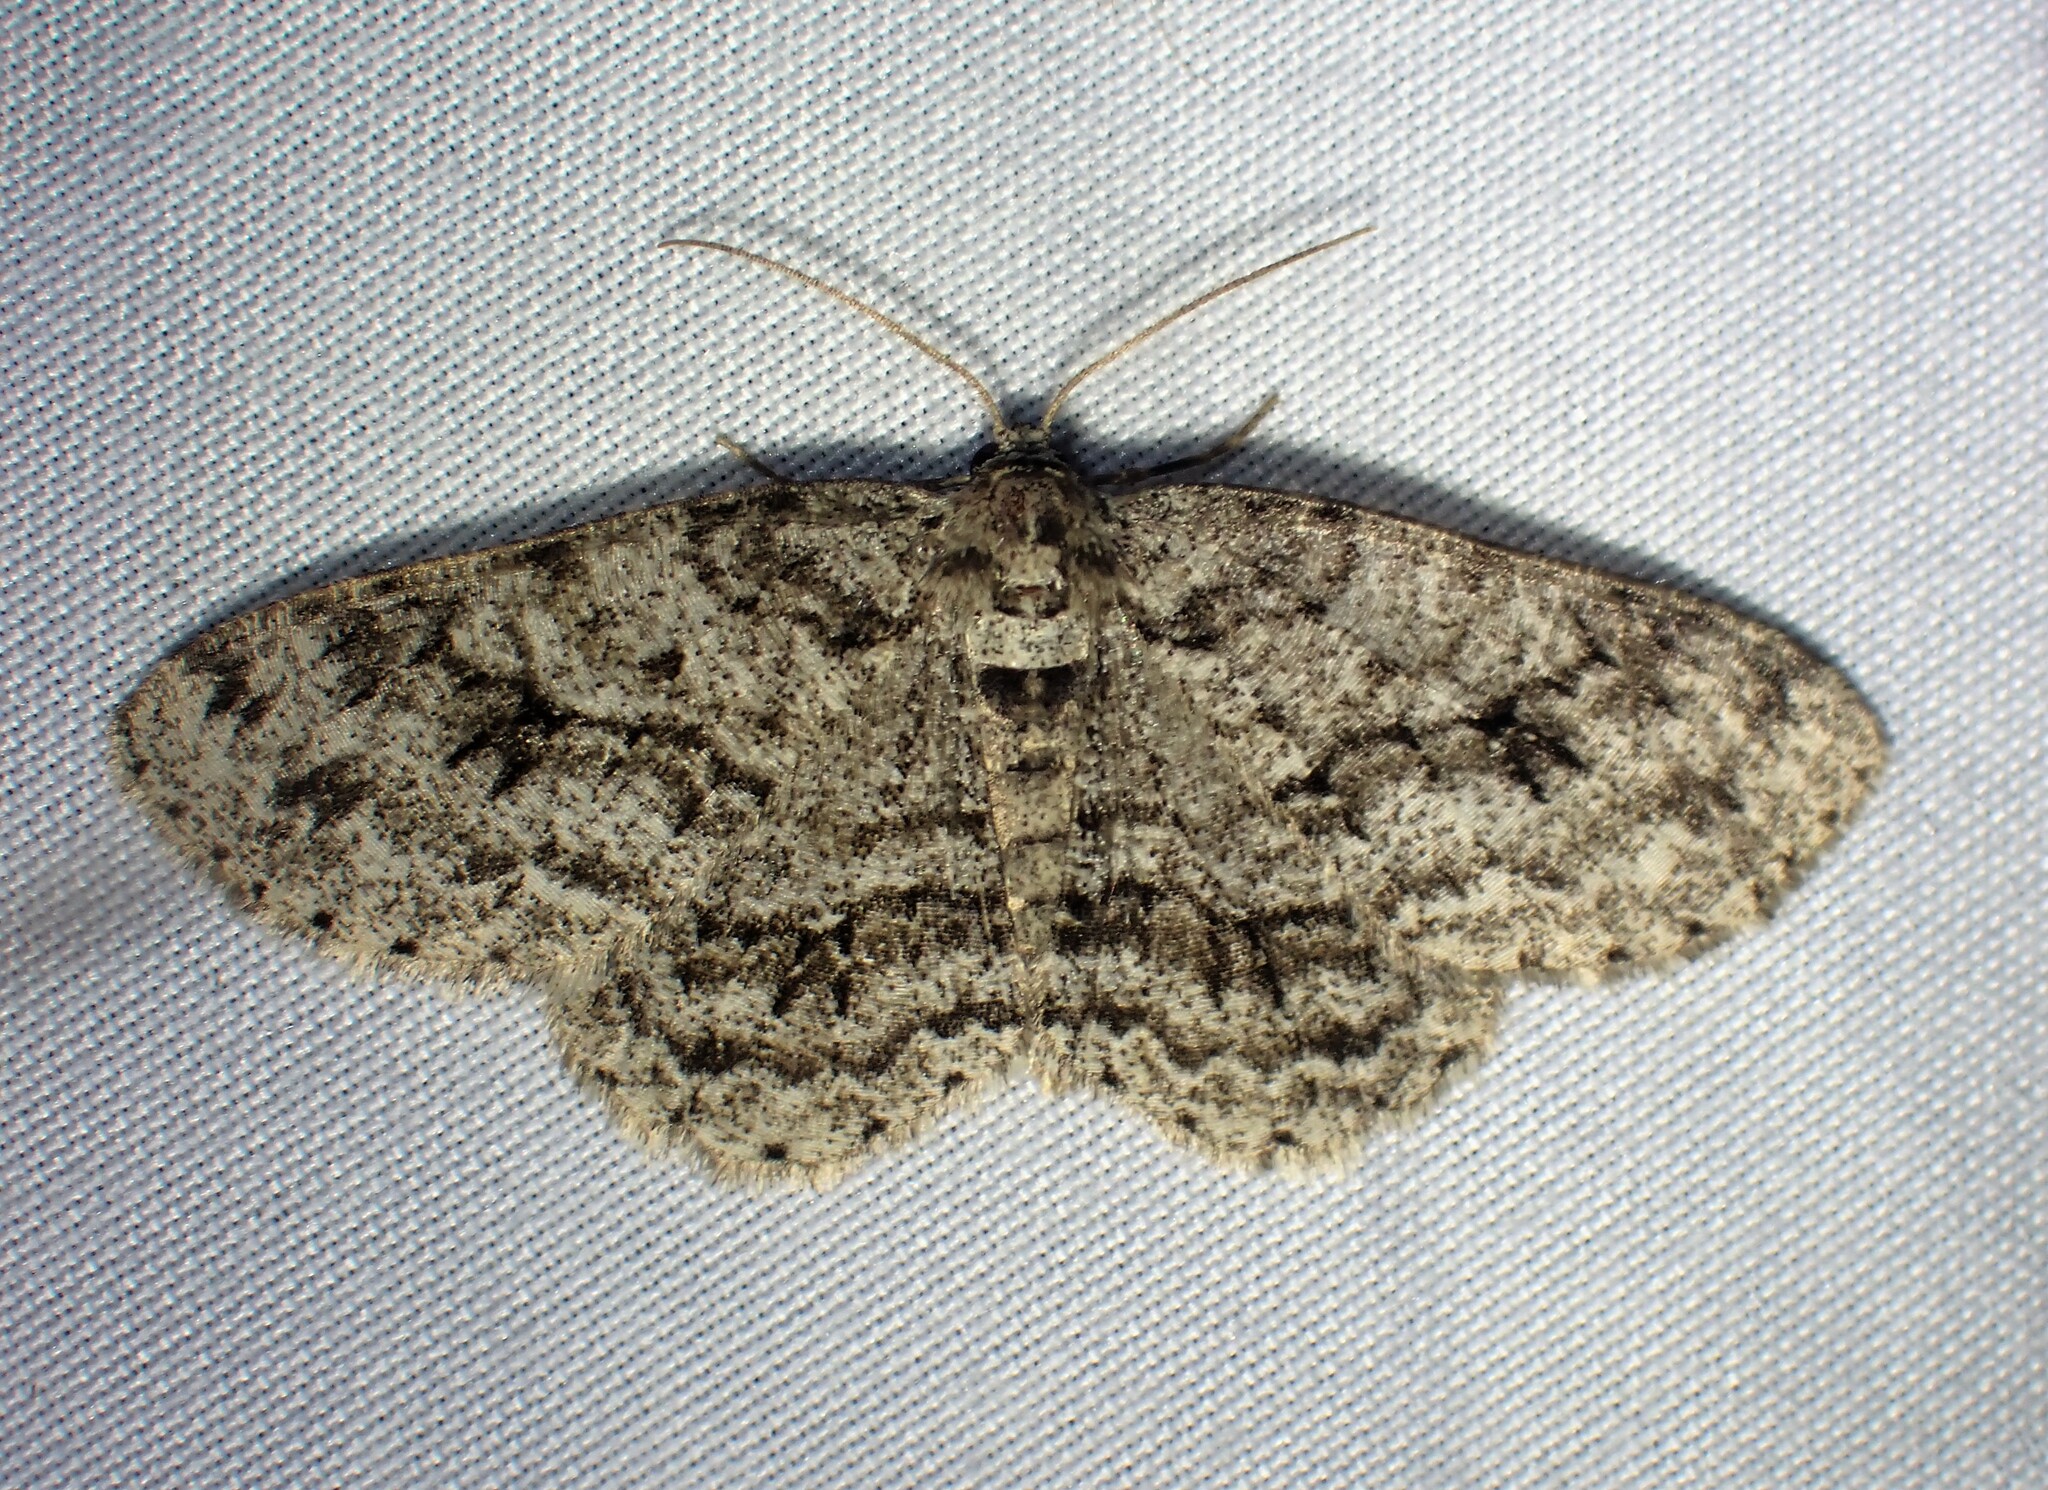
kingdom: Animalia
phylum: Arthropoda
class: Insecta
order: Lepidoptera
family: Geometridae
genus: Ectropis
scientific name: Ectropis crepuscularia
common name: Engrailed
